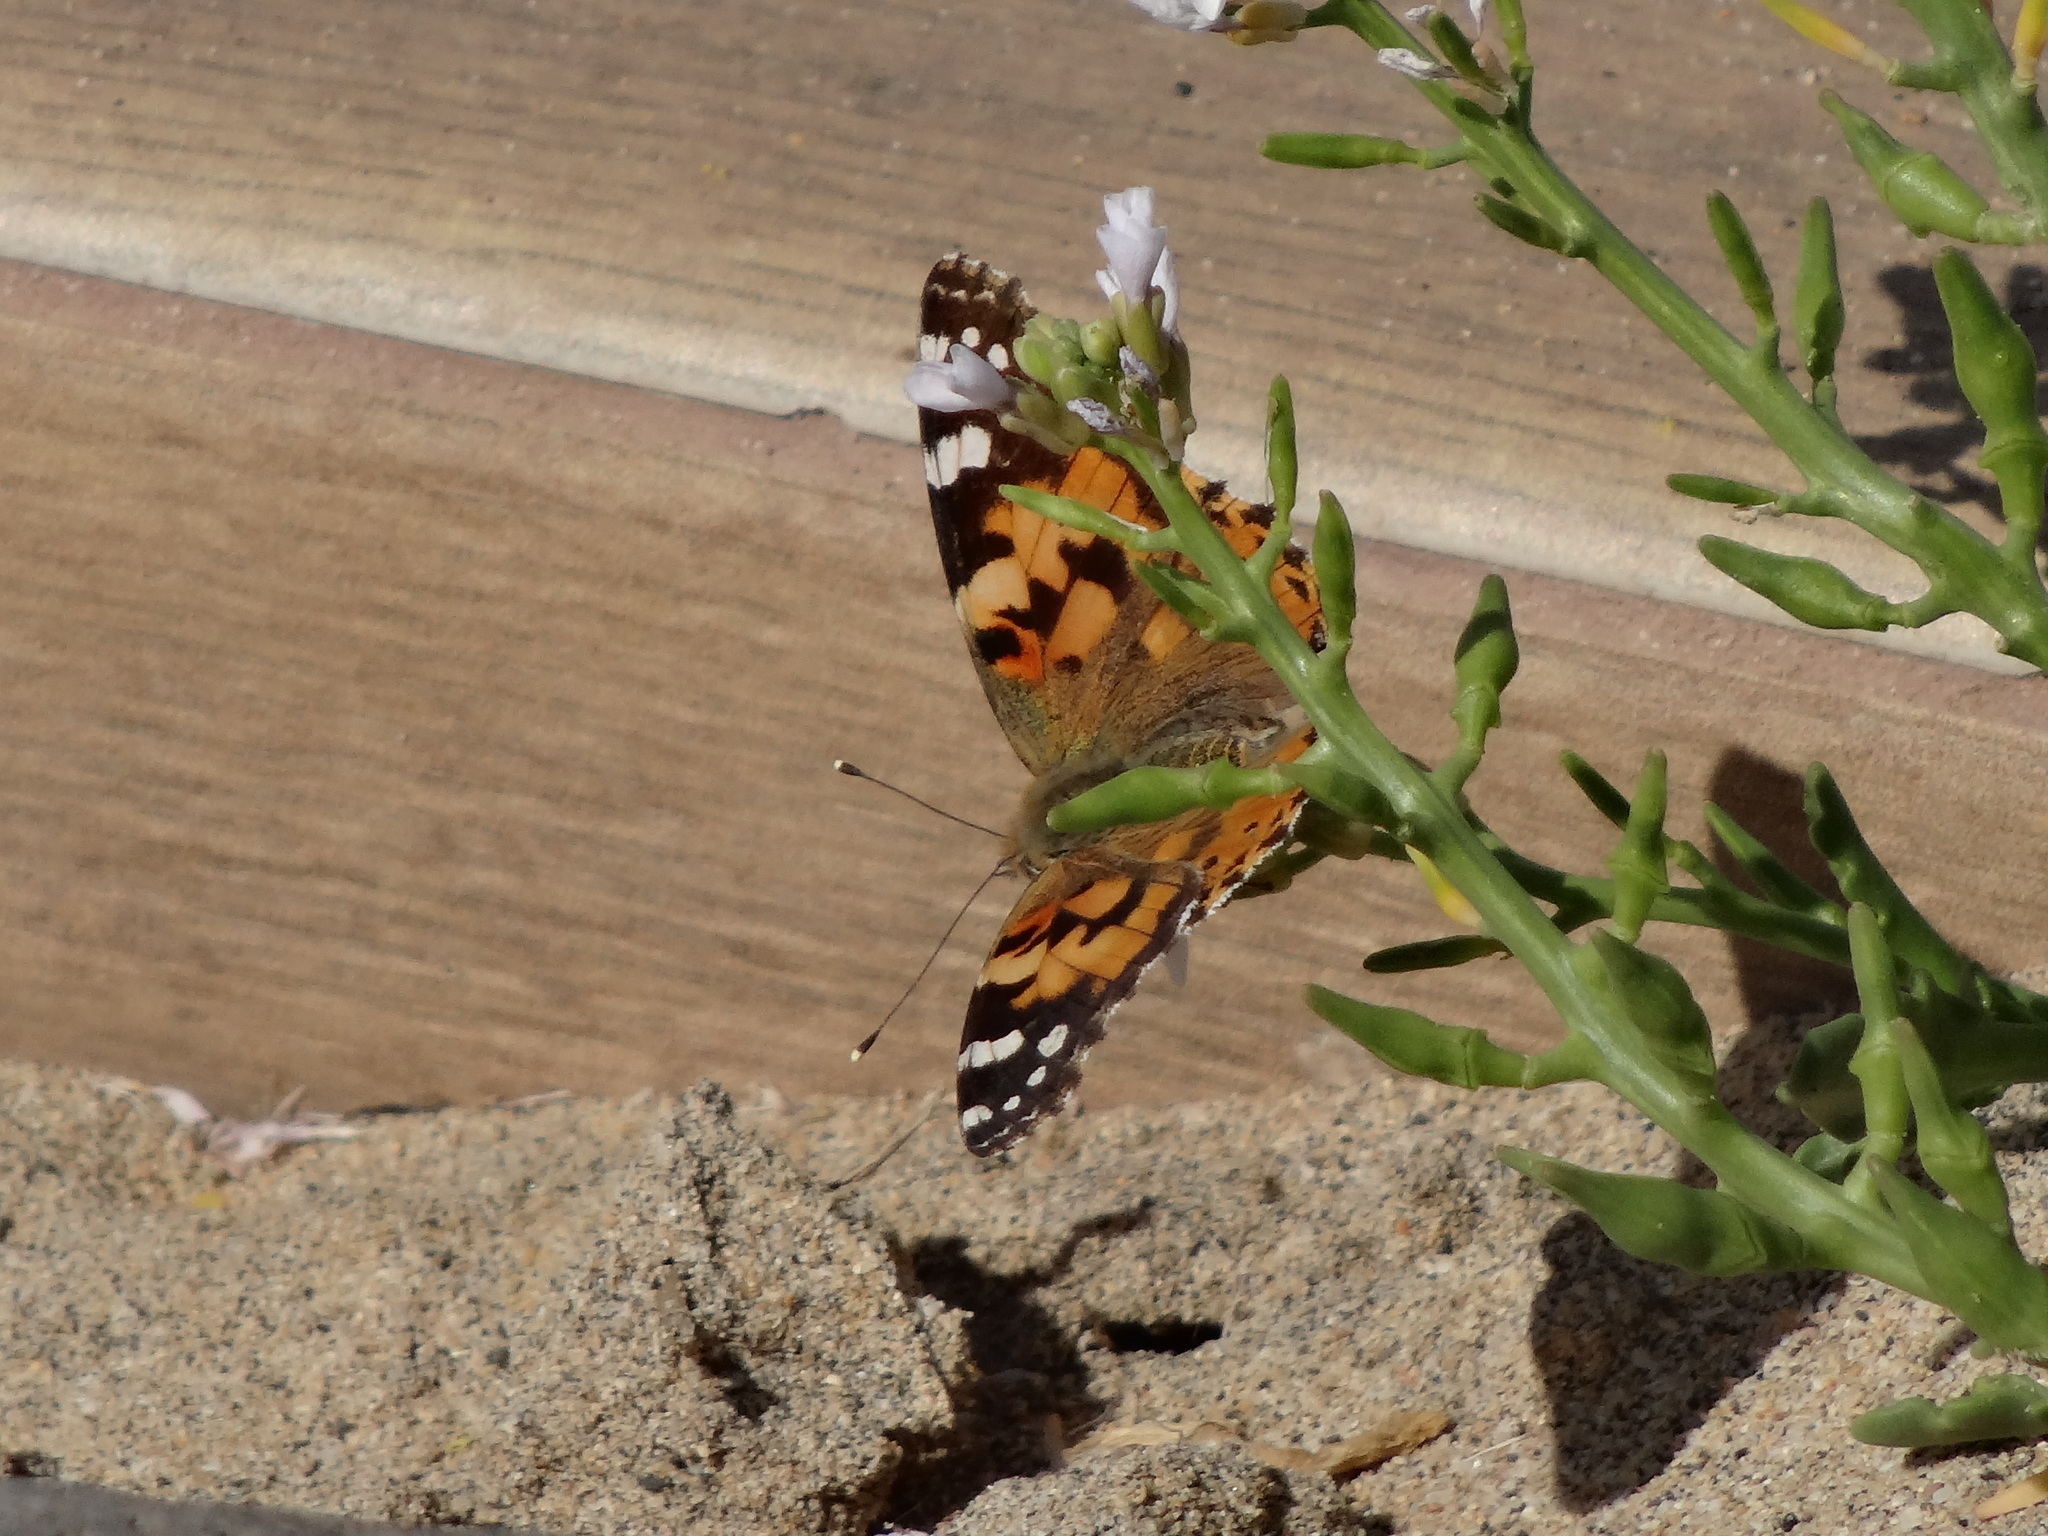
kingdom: Animalia
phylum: Arthropoda
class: Insecta
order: Lepidoptera
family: Nymphalidae
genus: Vanessa
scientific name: Vanessa cardui
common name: Painted lady
